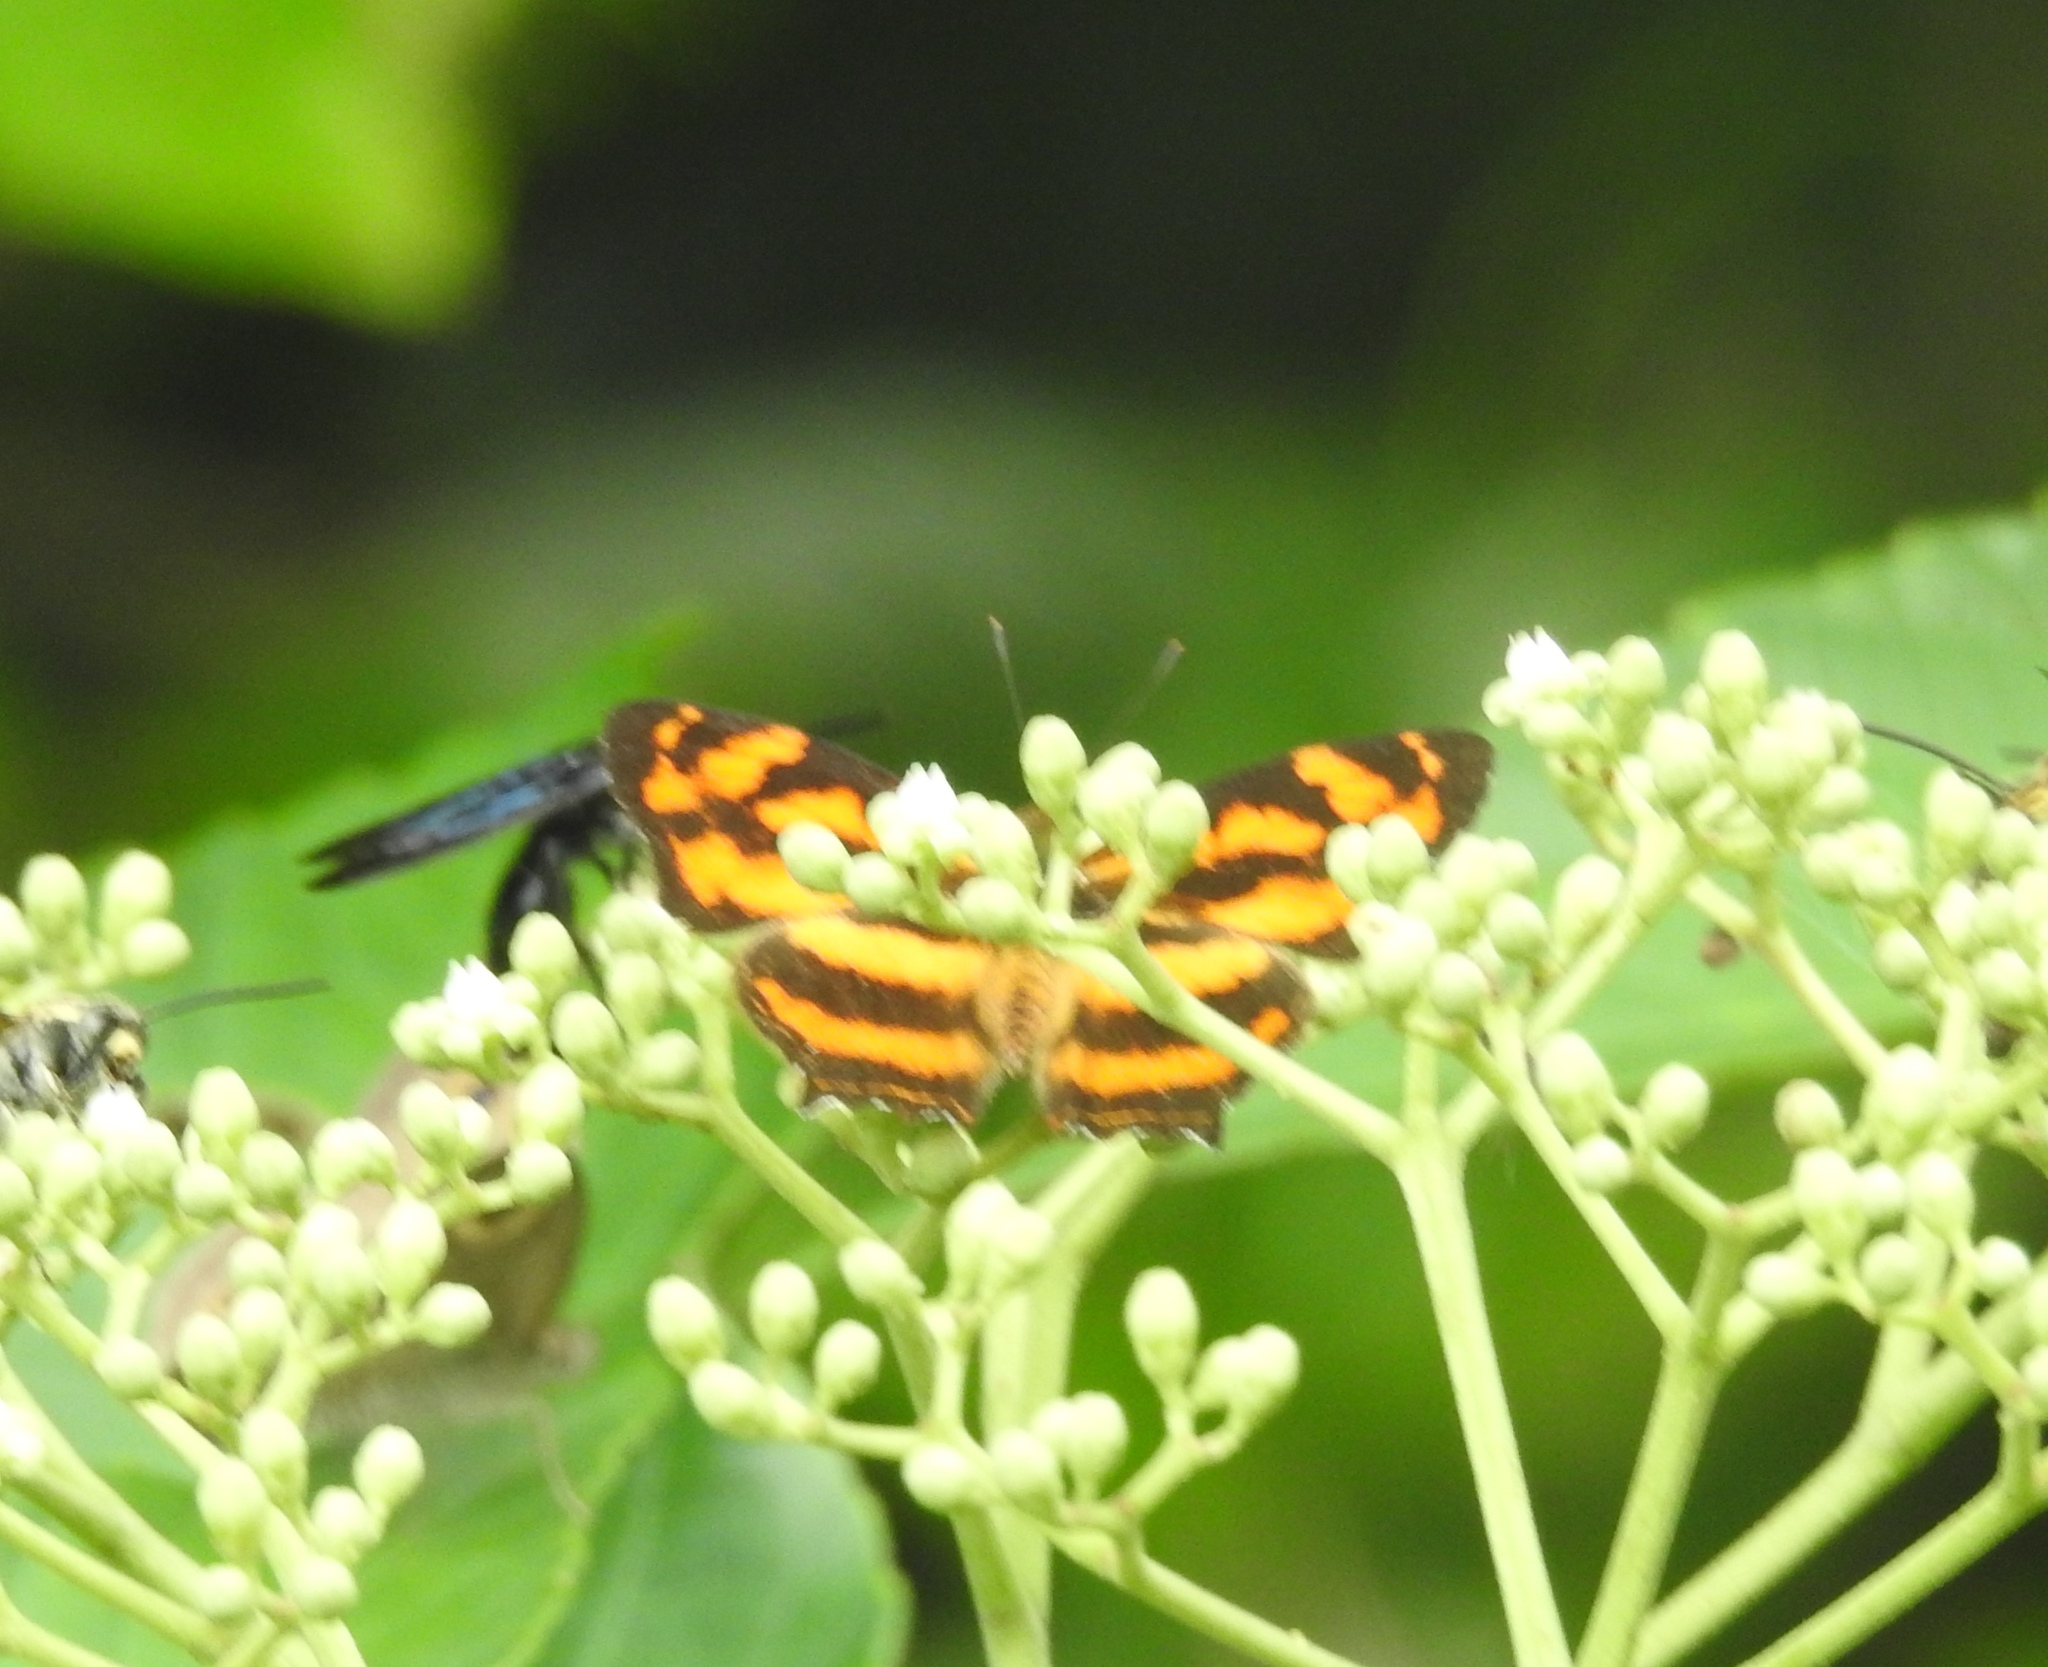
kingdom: Animalia
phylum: Arthropoda
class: Insecta
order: Lepidoptera
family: Nymphalidae
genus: Pantoporia
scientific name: Pantoporia hordonia
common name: Common lascar
